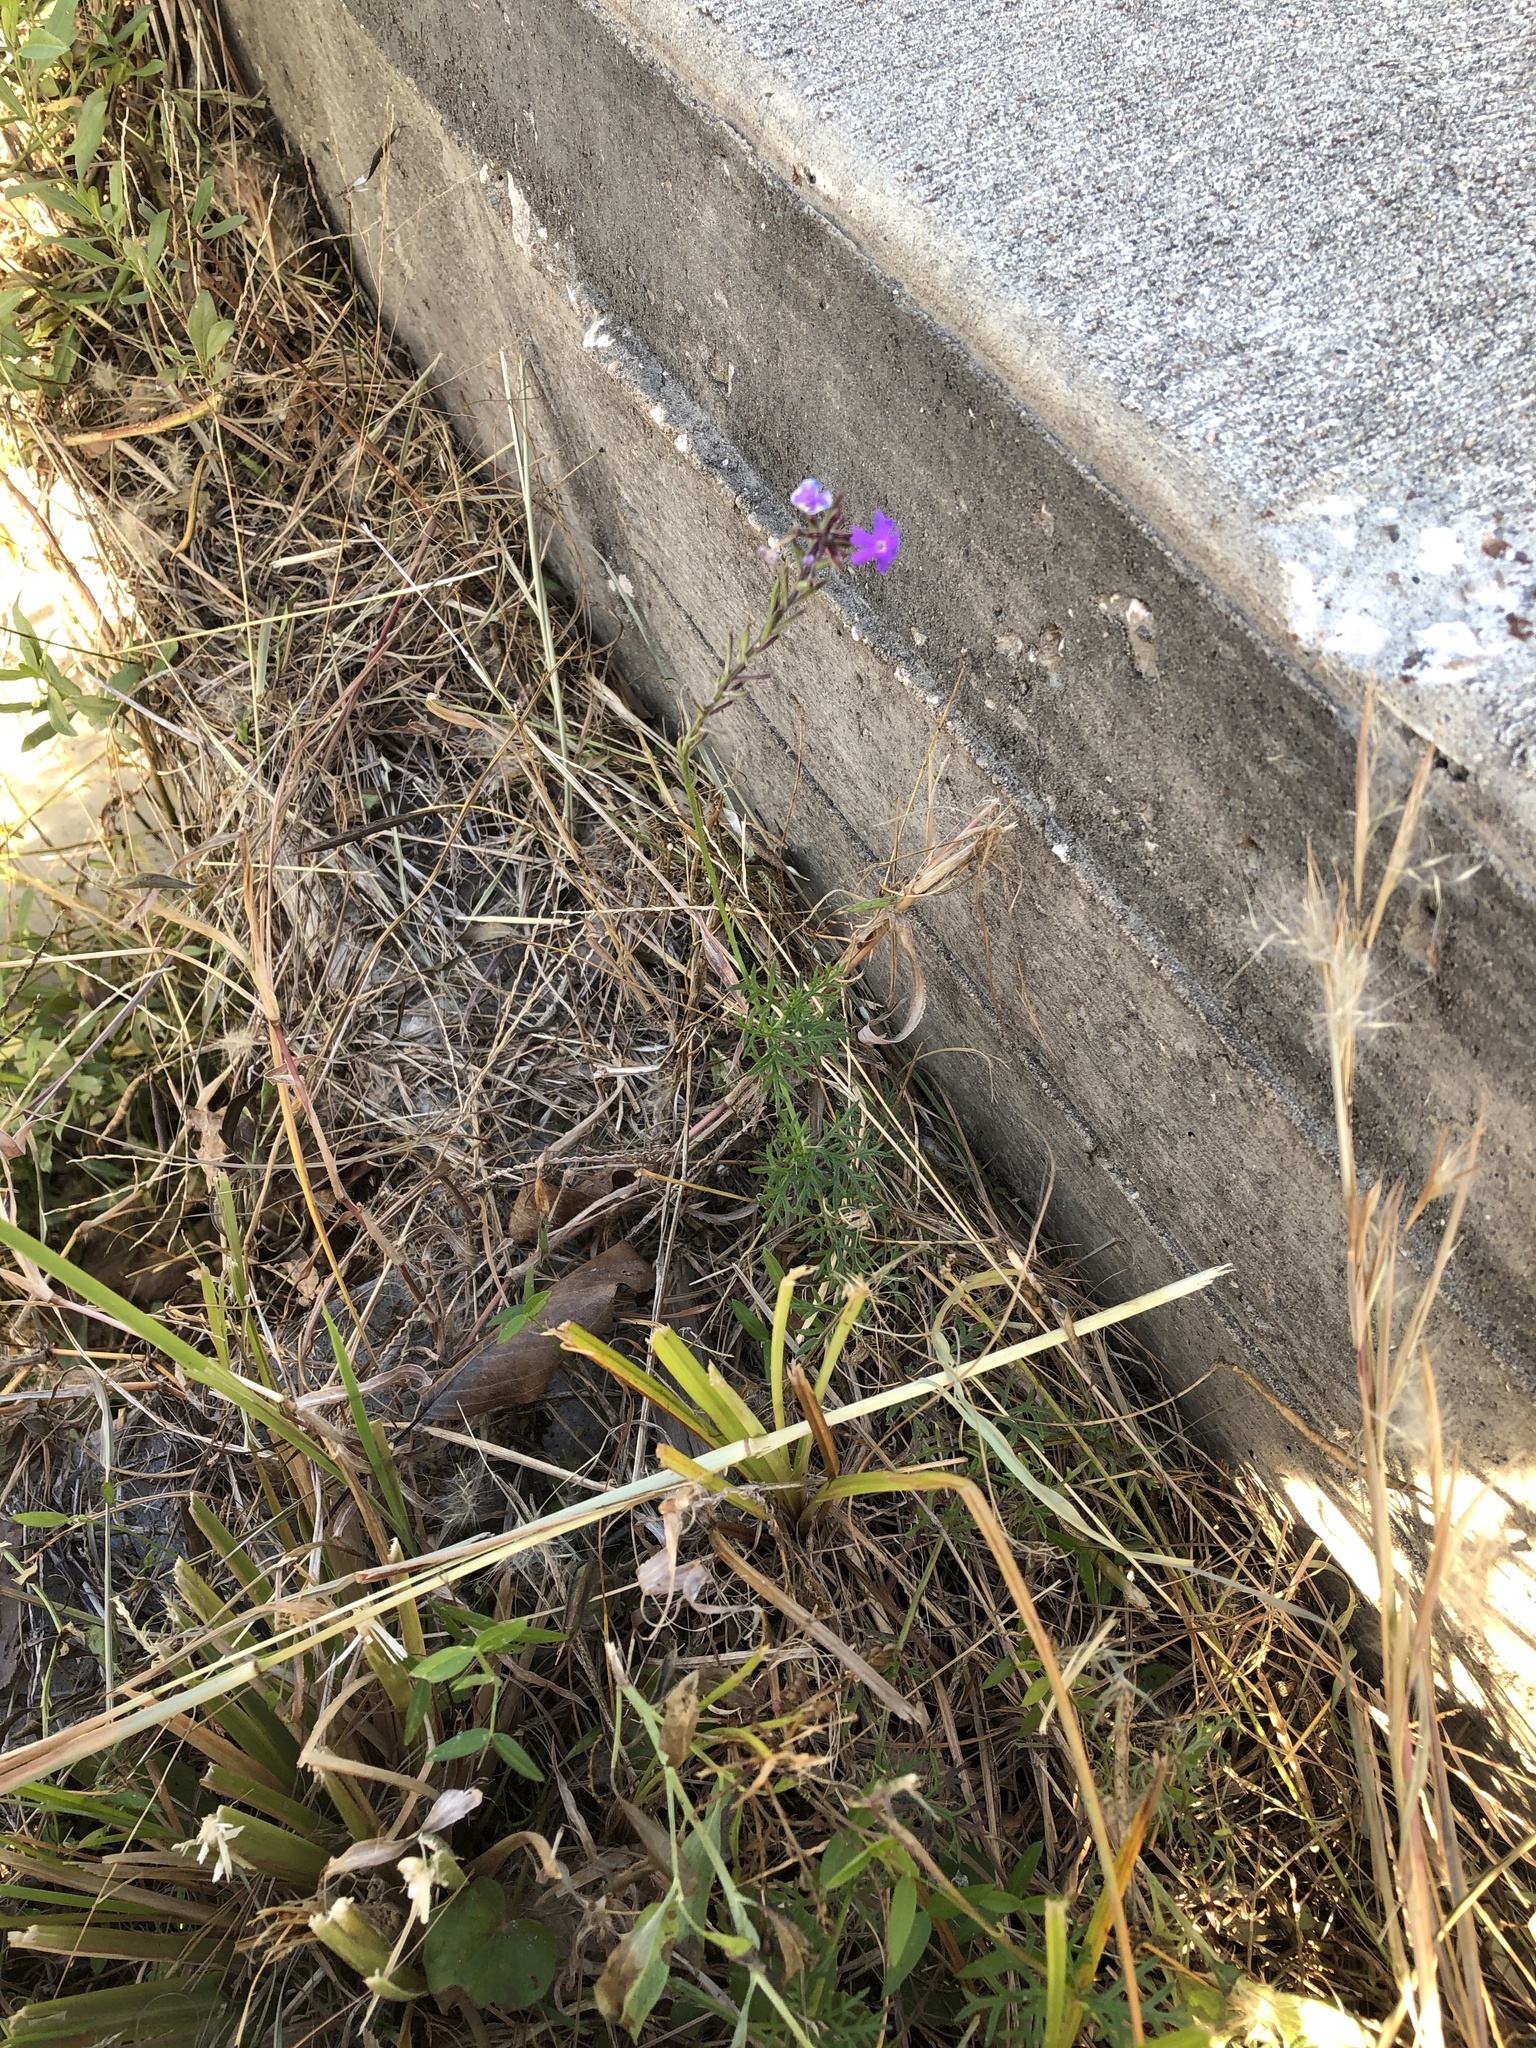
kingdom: Plantae
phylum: Tracheophyta
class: Magnoliopsida
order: Lamiales
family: Verbenaceae
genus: Verbena
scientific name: Verbena bipinnatifida
